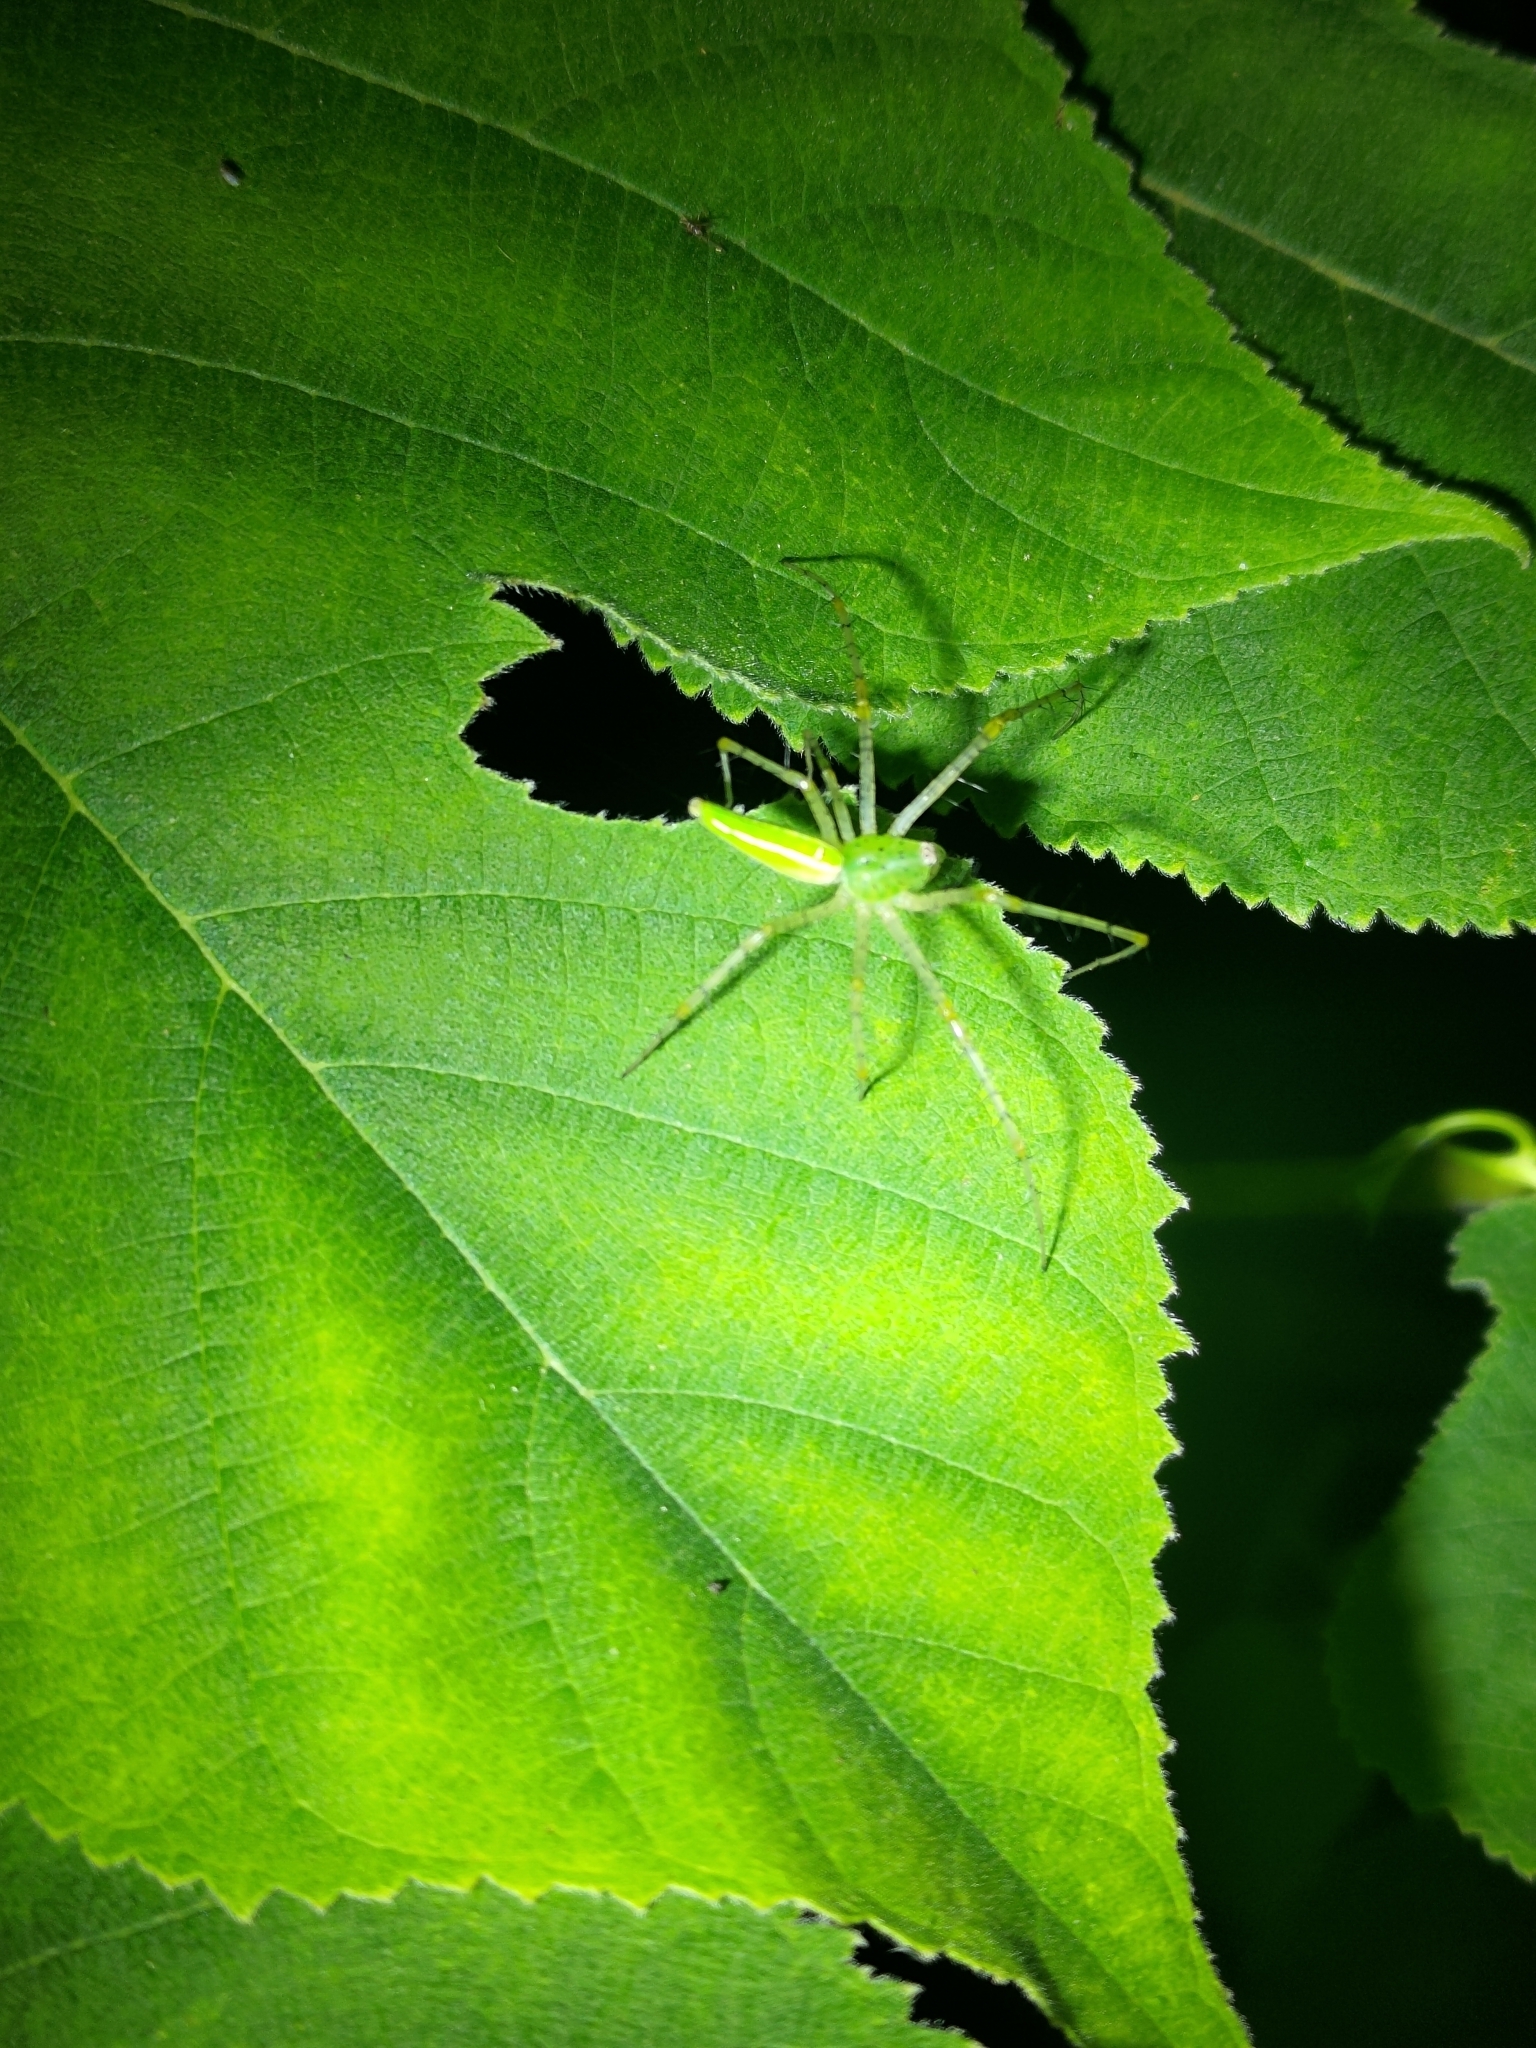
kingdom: Animalia
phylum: Arthropoda
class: Arachnida
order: Araneae
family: Oxyopidae
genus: Peucetia
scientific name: Peucetia formosensis
